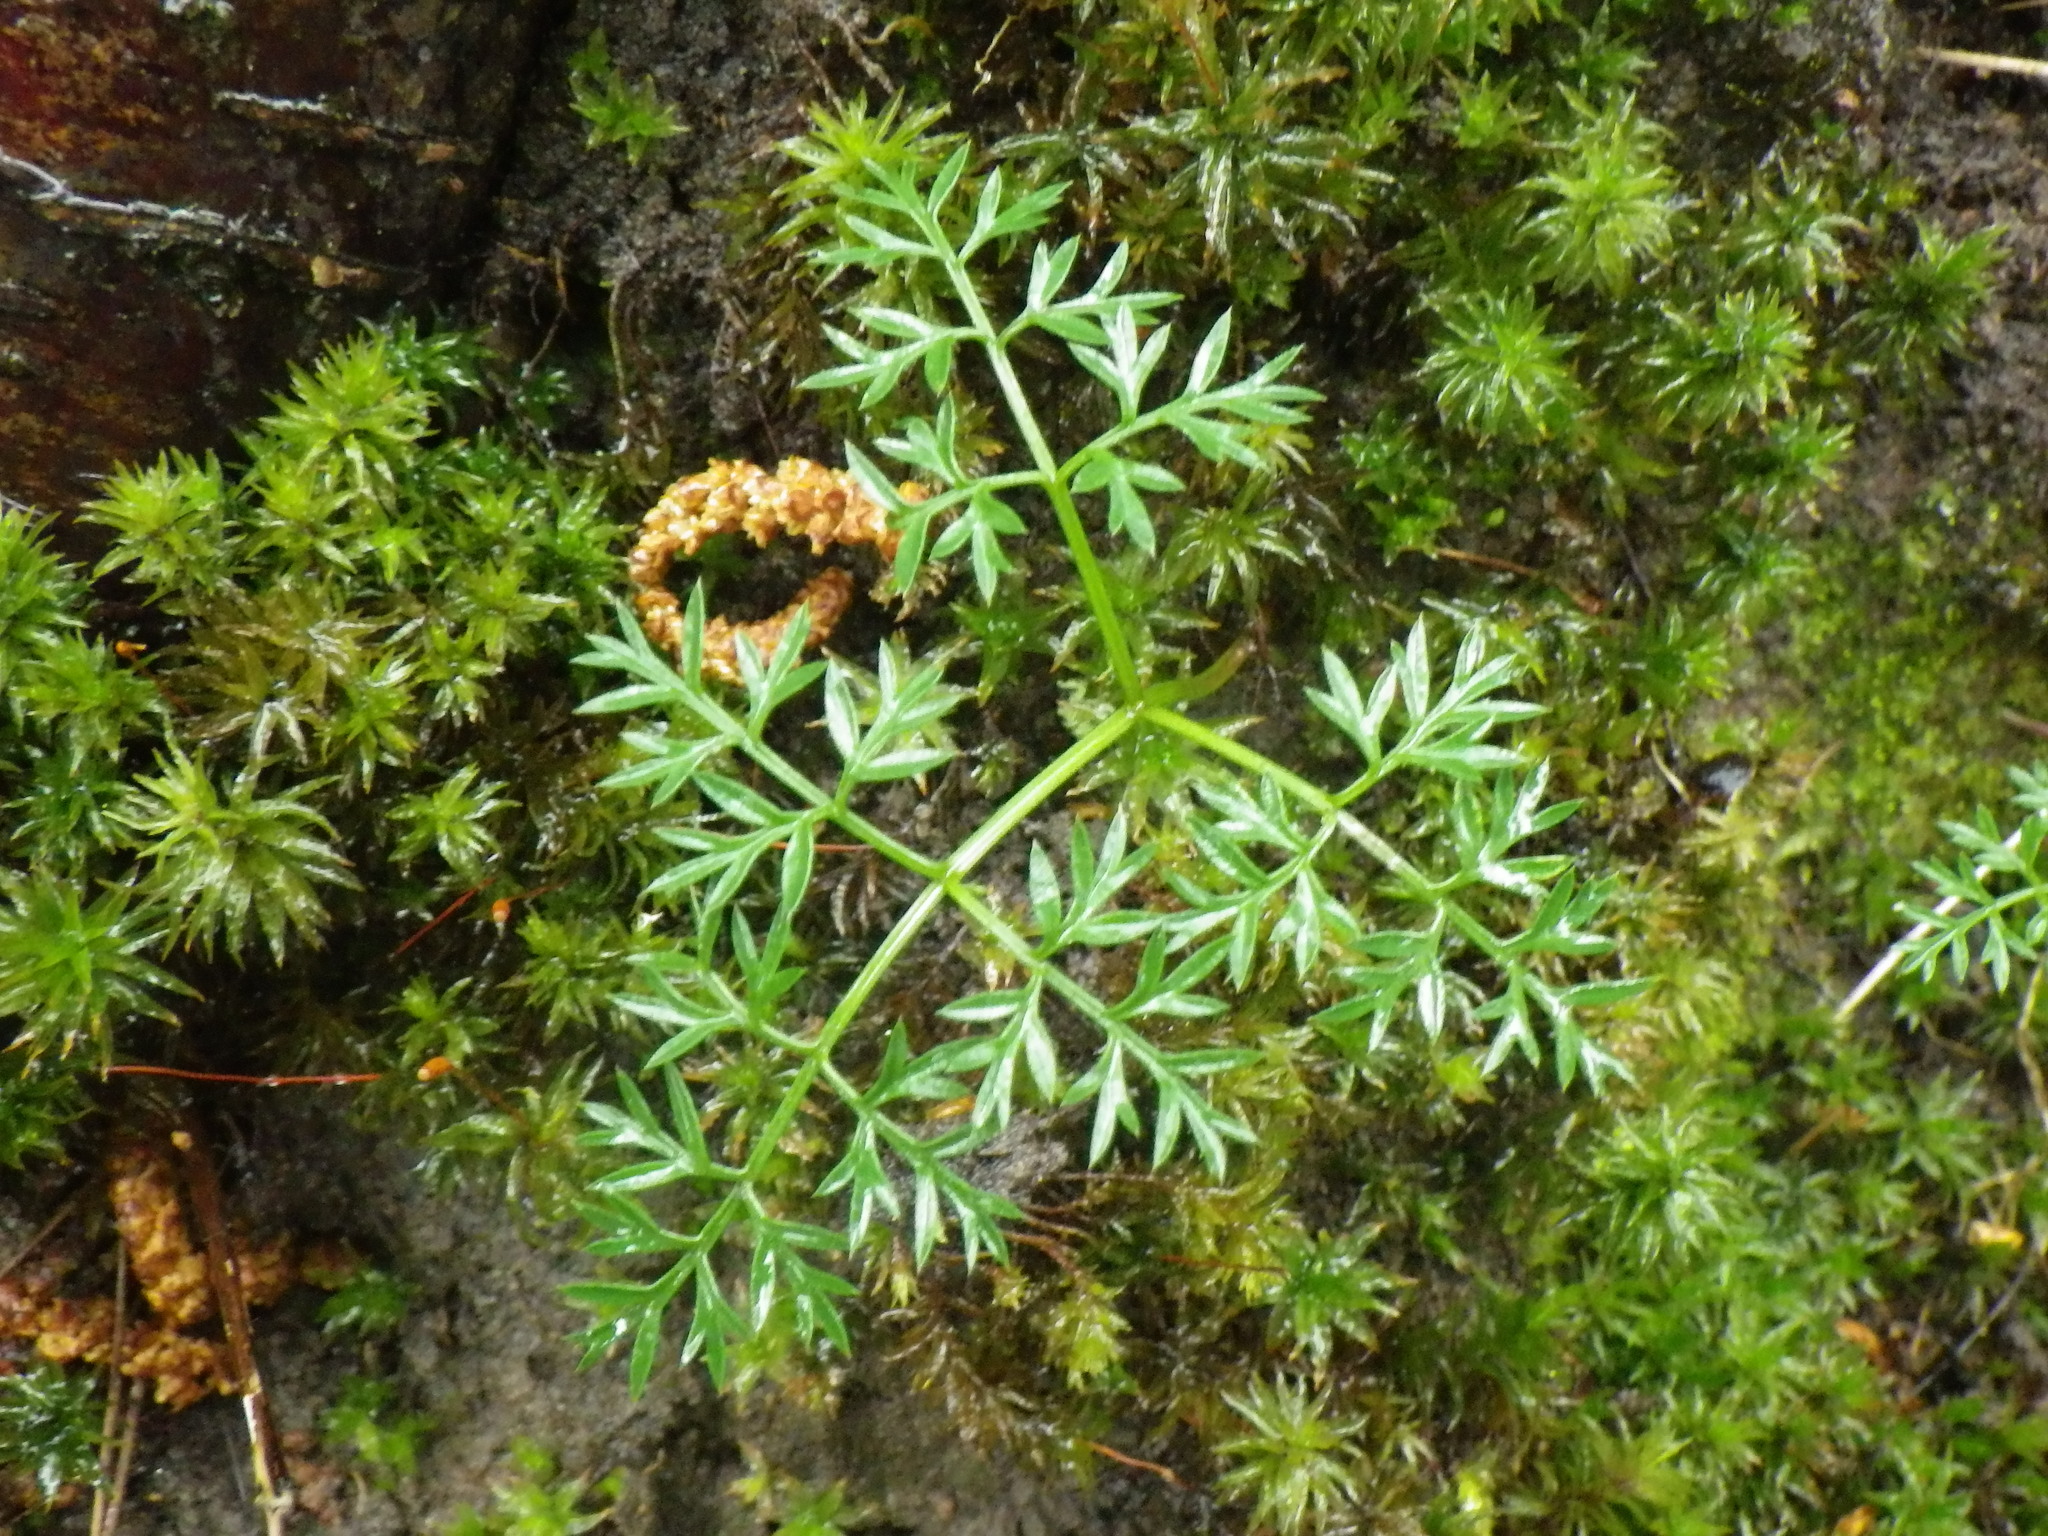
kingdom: Plantae
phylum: Tracheophyta
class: Magnoliopsida
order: Apiales
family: Apiaceae
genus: Conopodium
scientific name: Conopodium majus
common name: Pignut
